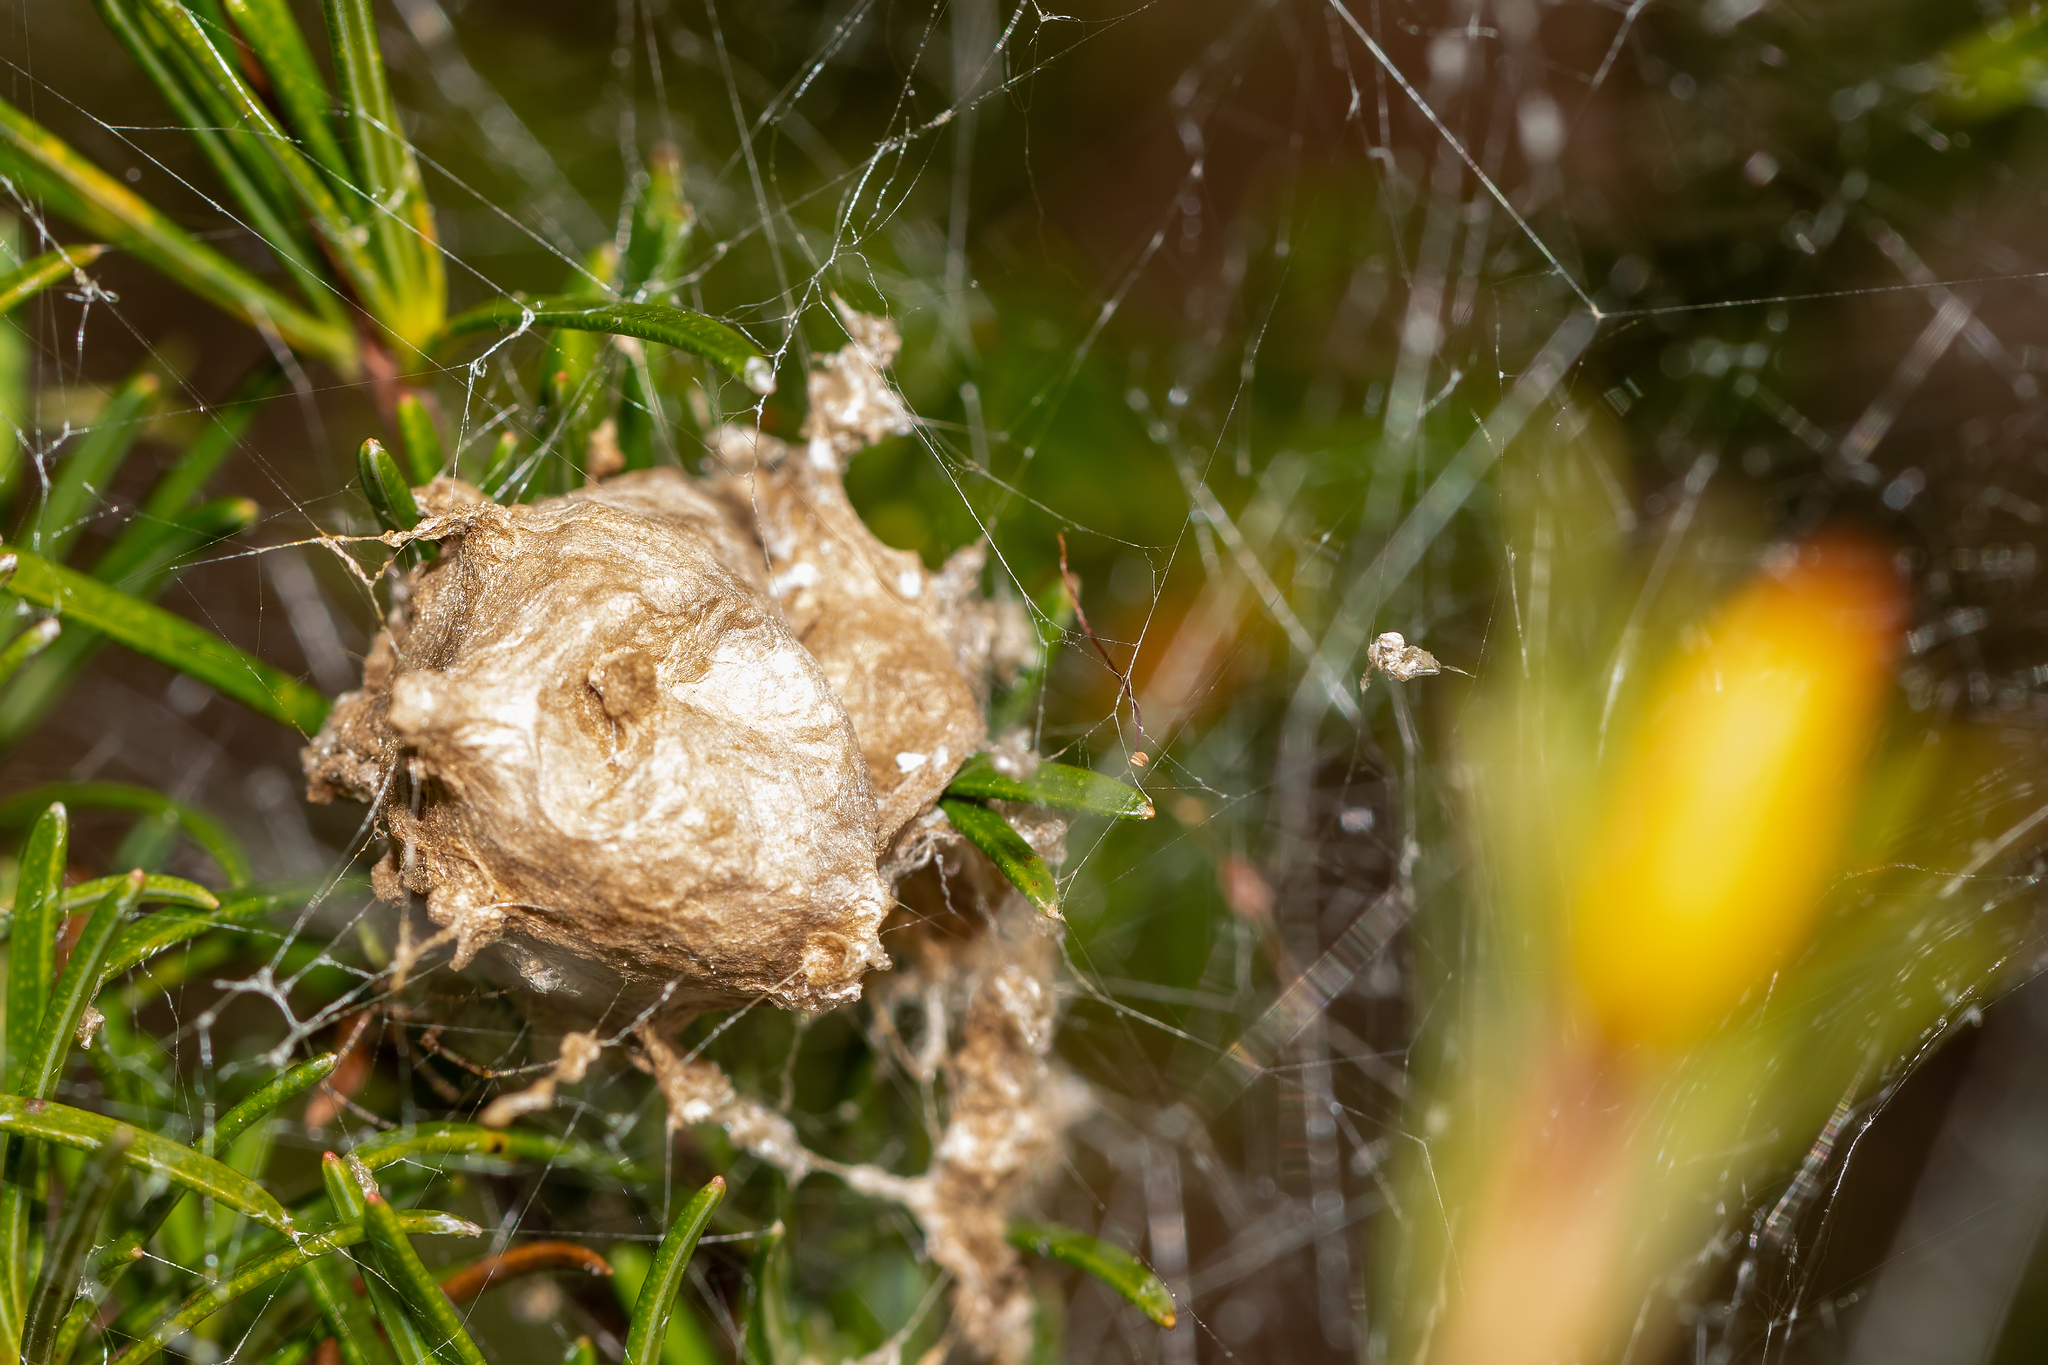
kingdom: Animalia
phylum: Arthropoda
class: Arachnida
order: Araneae
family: Oxyopidae
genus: Peucetia
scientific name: Peucetia viridans
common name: Lynx spiders
